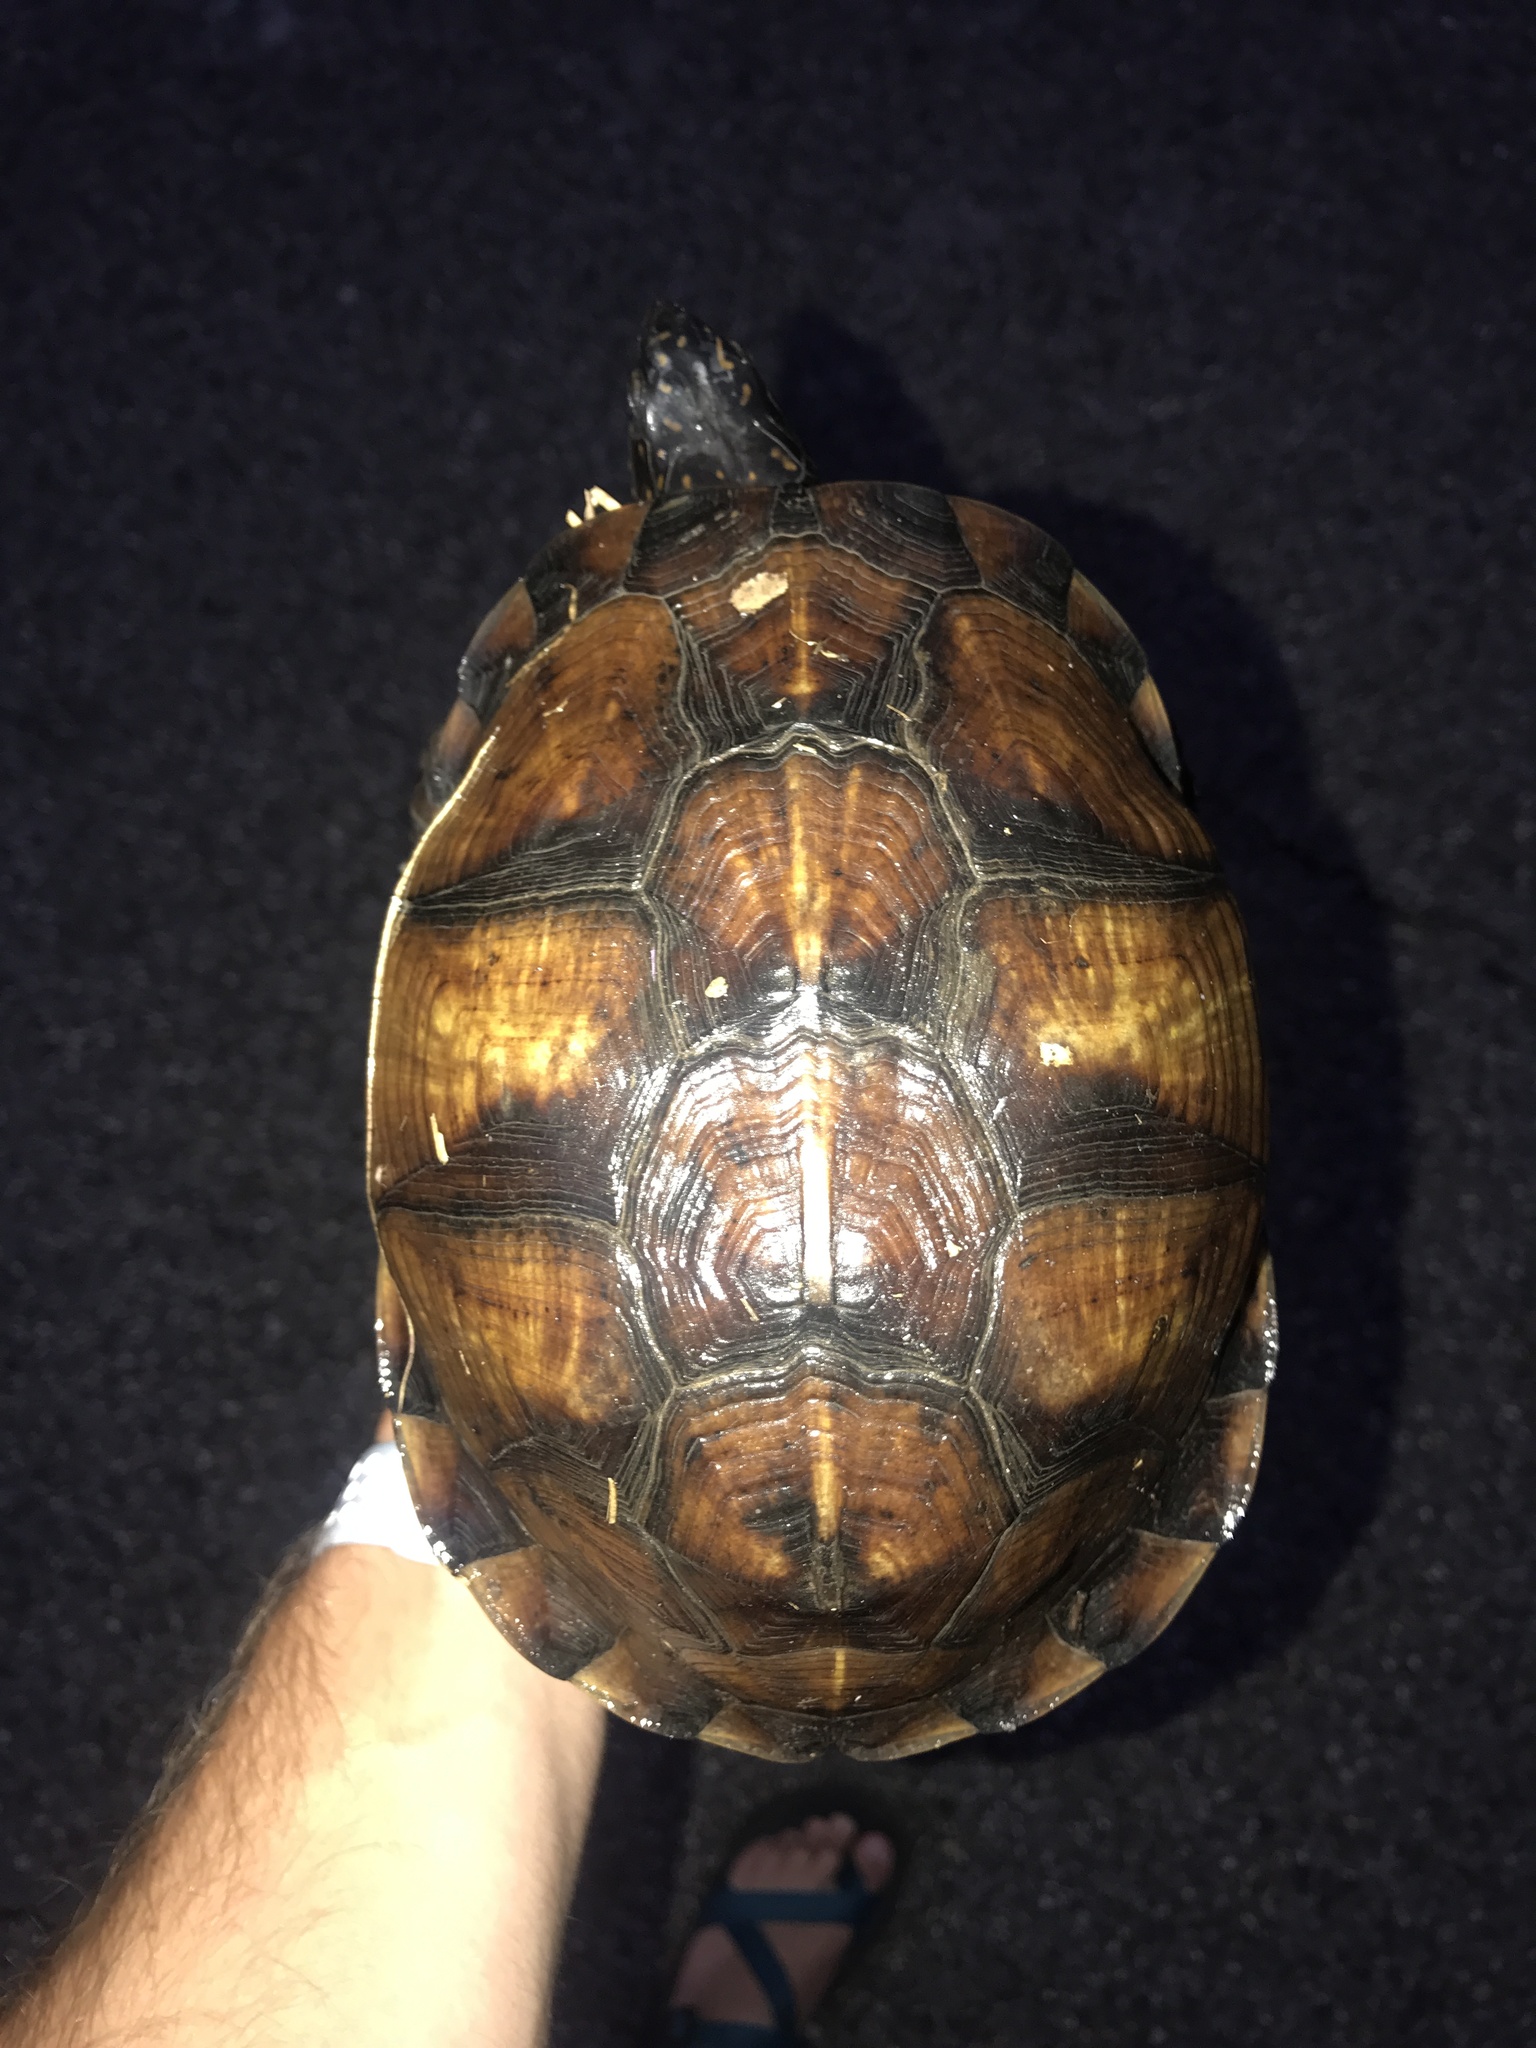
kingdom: Animalia
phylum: Chordata
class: Testudines
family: Emydidae
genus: Terrapene
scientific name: Terrapene carolina
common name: Common box turtle
